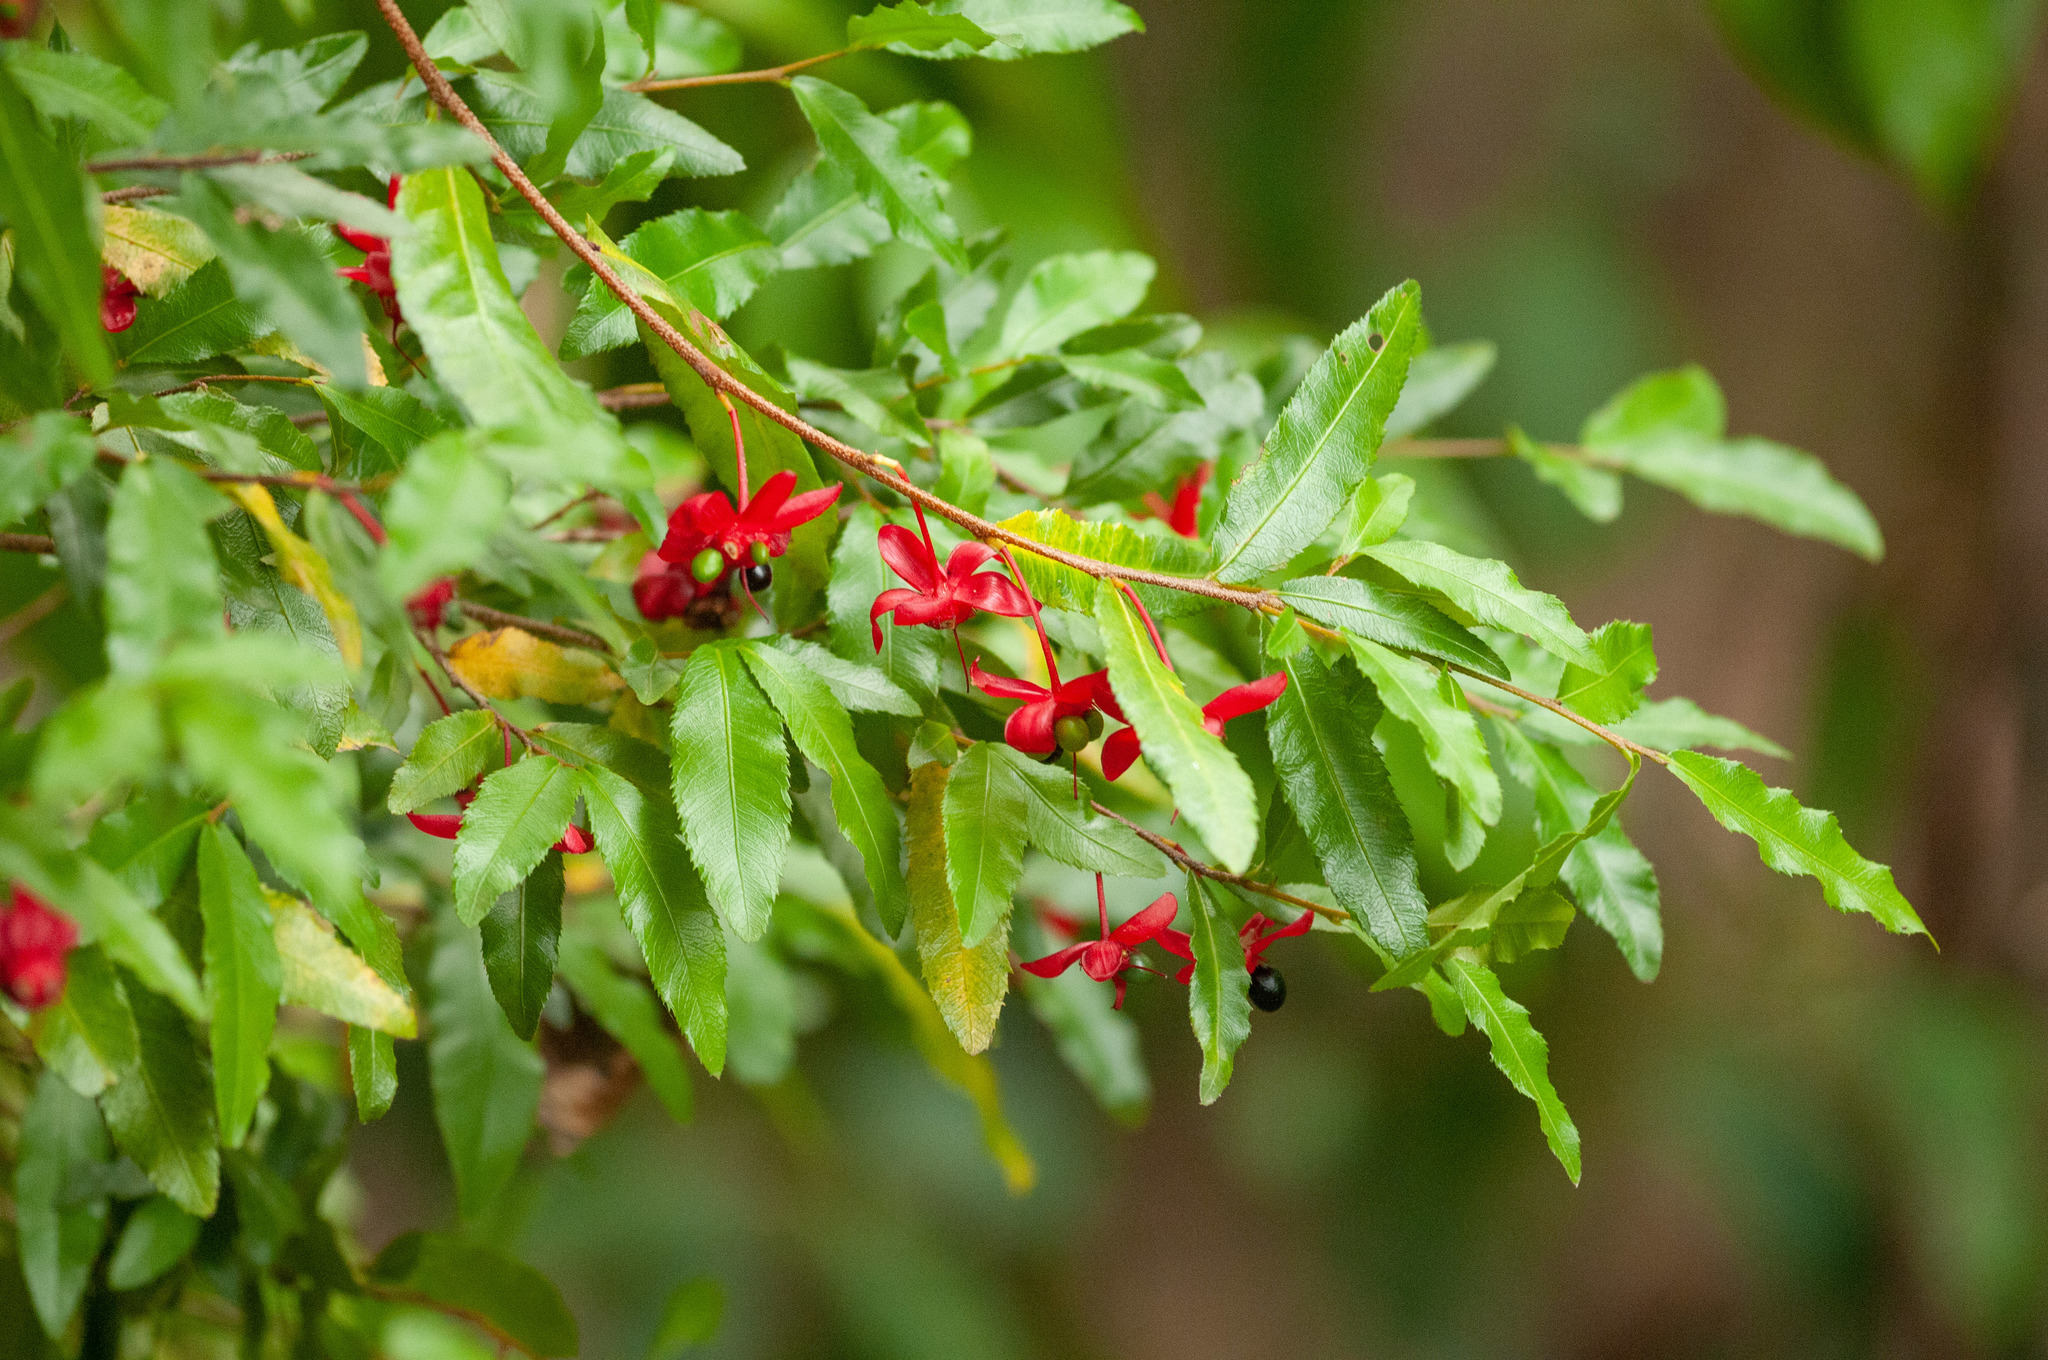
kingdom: Plantae
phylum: Tracheophyta
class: Magnoliopsida
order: Malpighiales
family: Ochnaceae
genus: Ochna
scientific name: Ochna serrulata
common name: Mickey mouse plant
